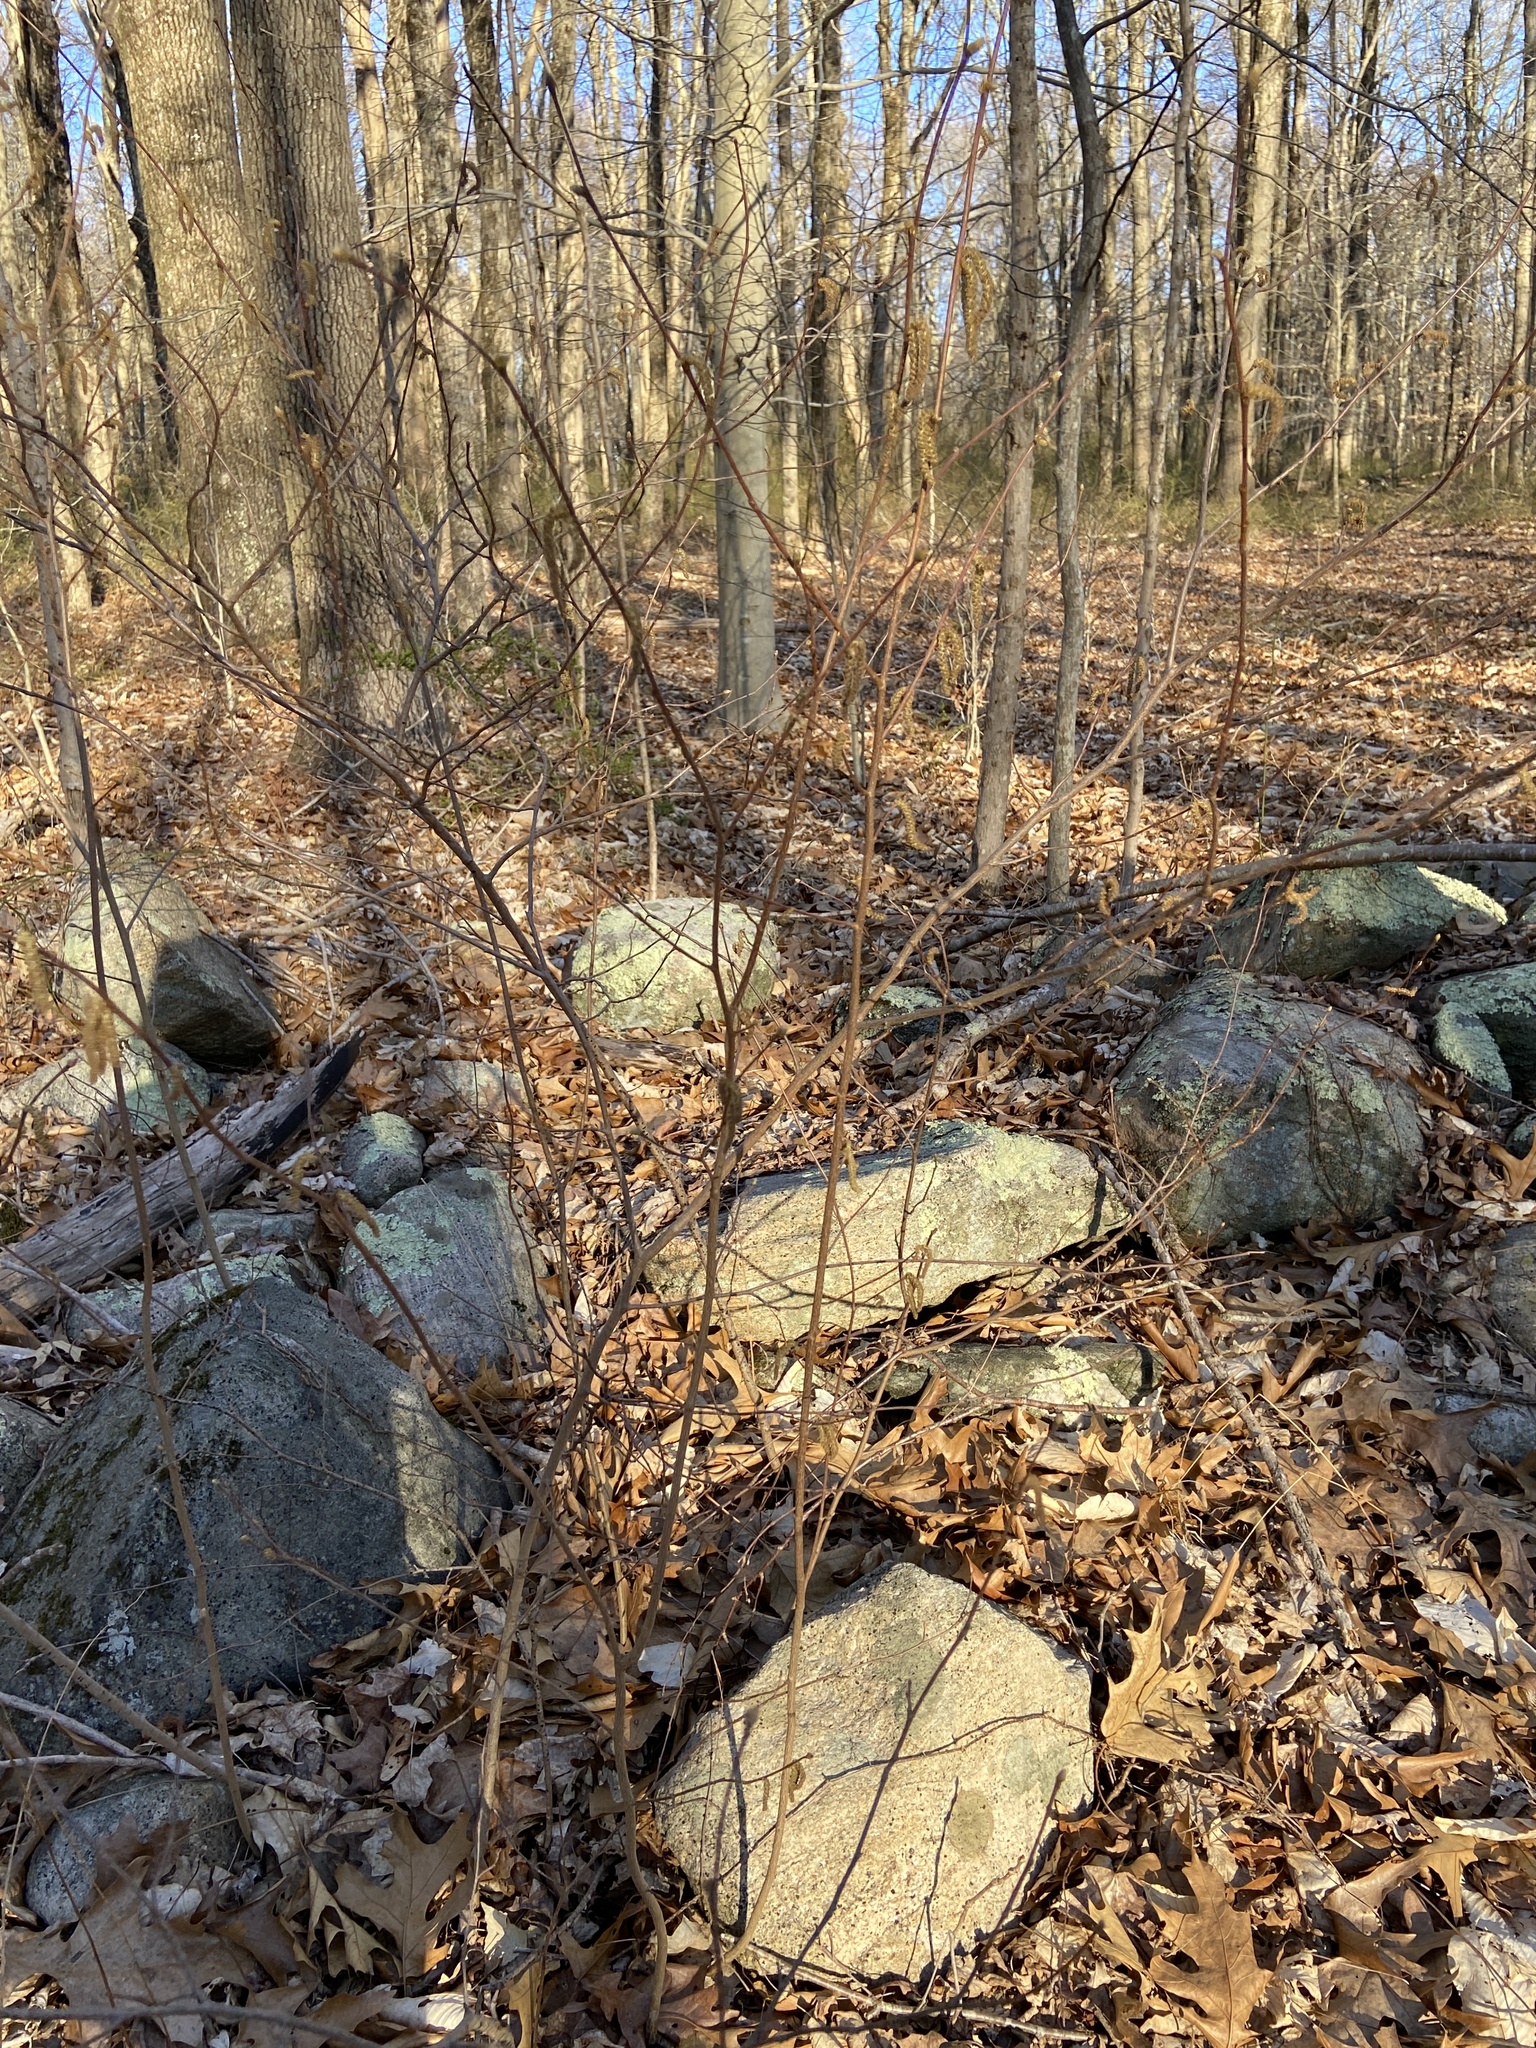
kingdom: Plantae
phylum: Tracheophyta
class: Magnoliopsida
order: Fagales
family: Betulaceae
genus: Corylus
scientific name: Corylus americana
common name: American hazel
